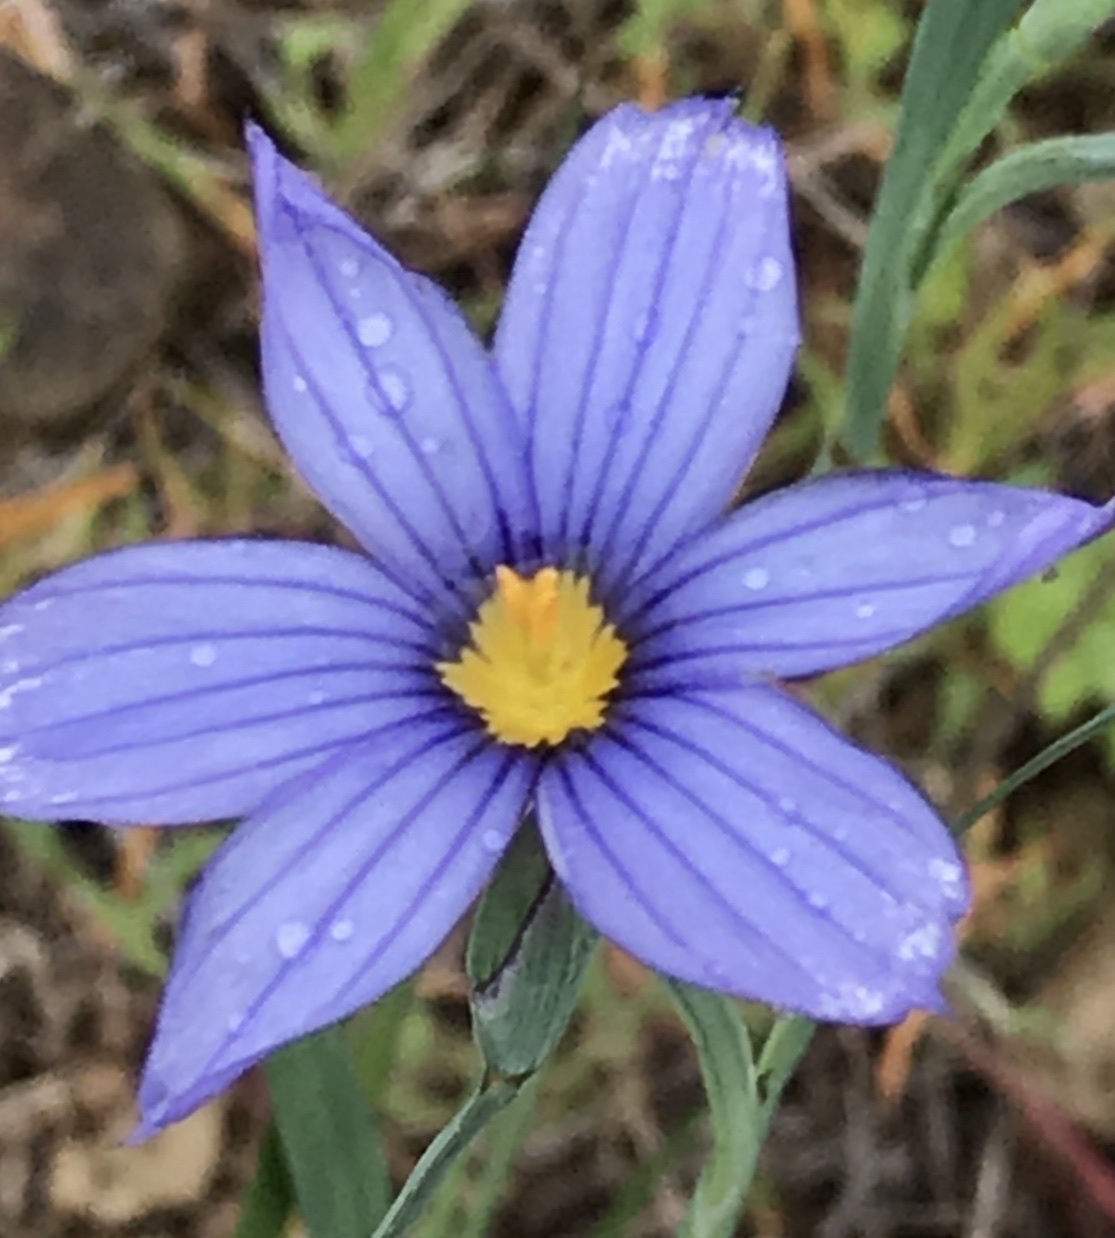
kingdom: Plantae
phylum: Tracheophyta
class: Liliopsida
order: Asparagales
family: Iridaceae
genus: Sisyrinchium
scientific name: Sisyrinchium bellum
